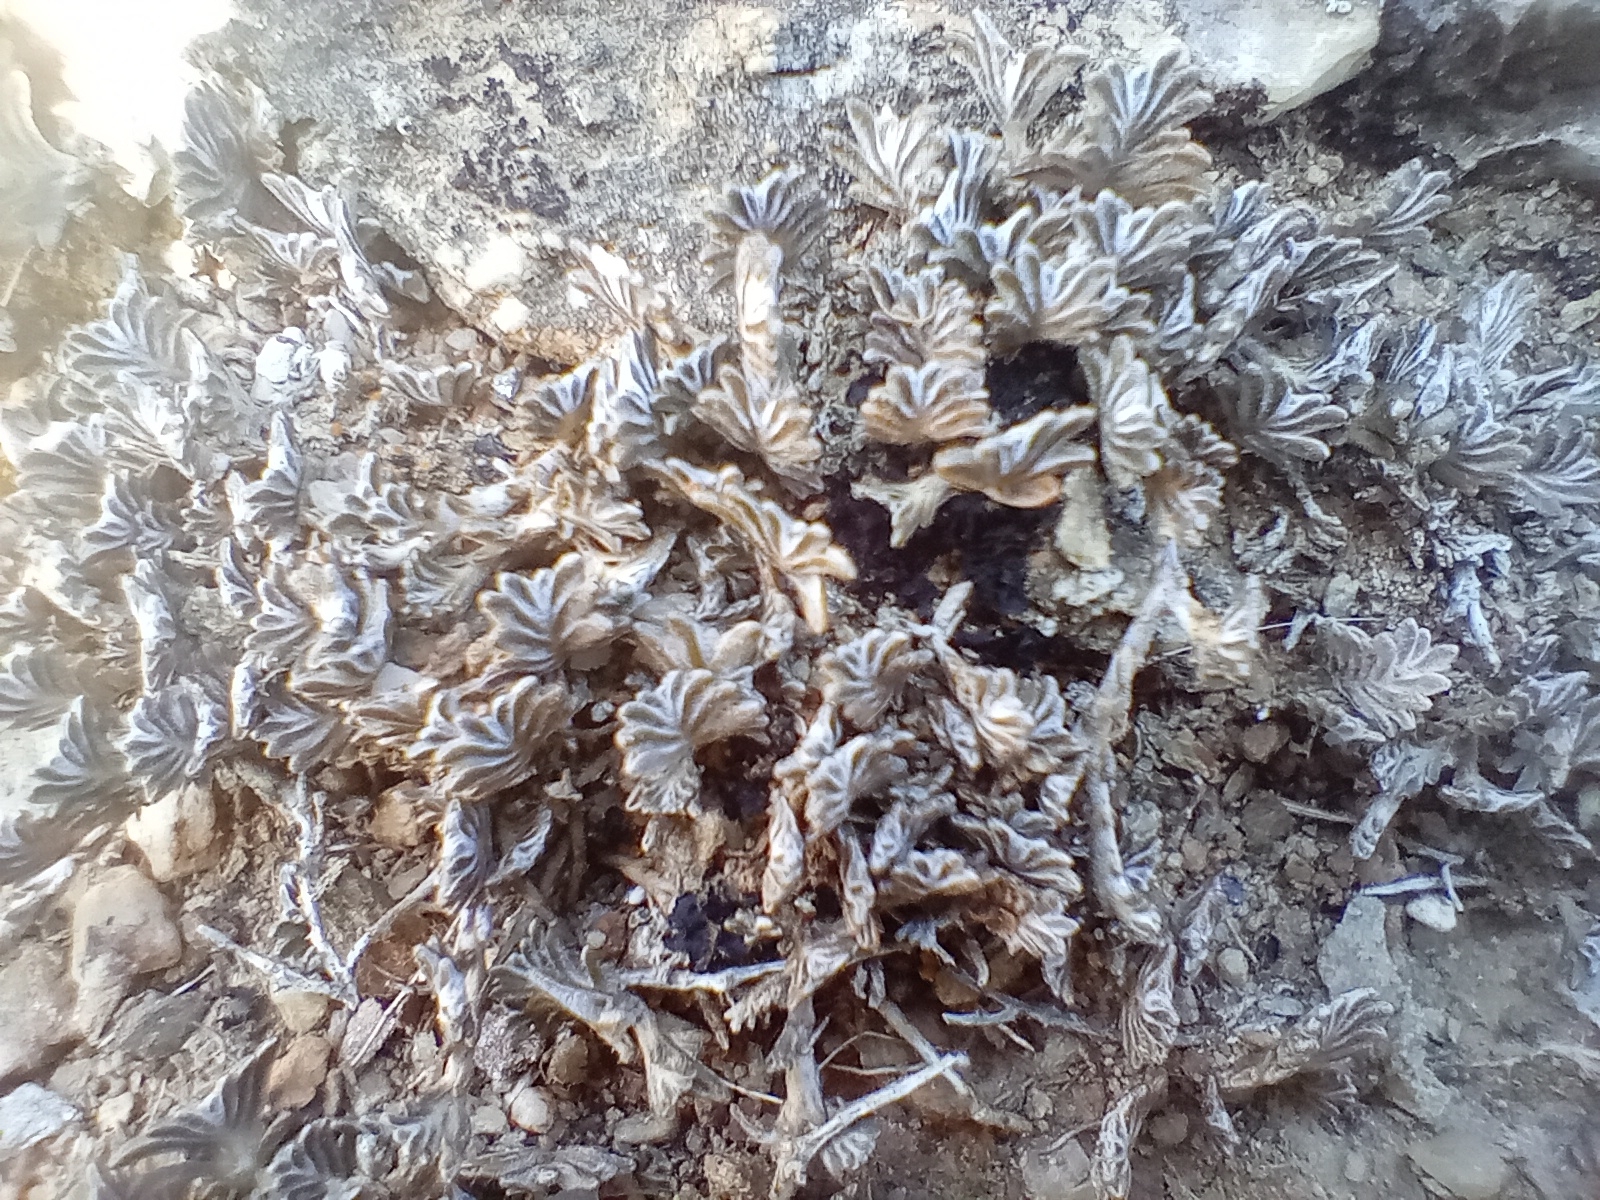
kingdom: Plantae
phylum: Tracheophyta
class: Magnoliopsida
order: Asterales
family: Asteraceae
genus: Raoulia
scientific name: Raoulia monroi
